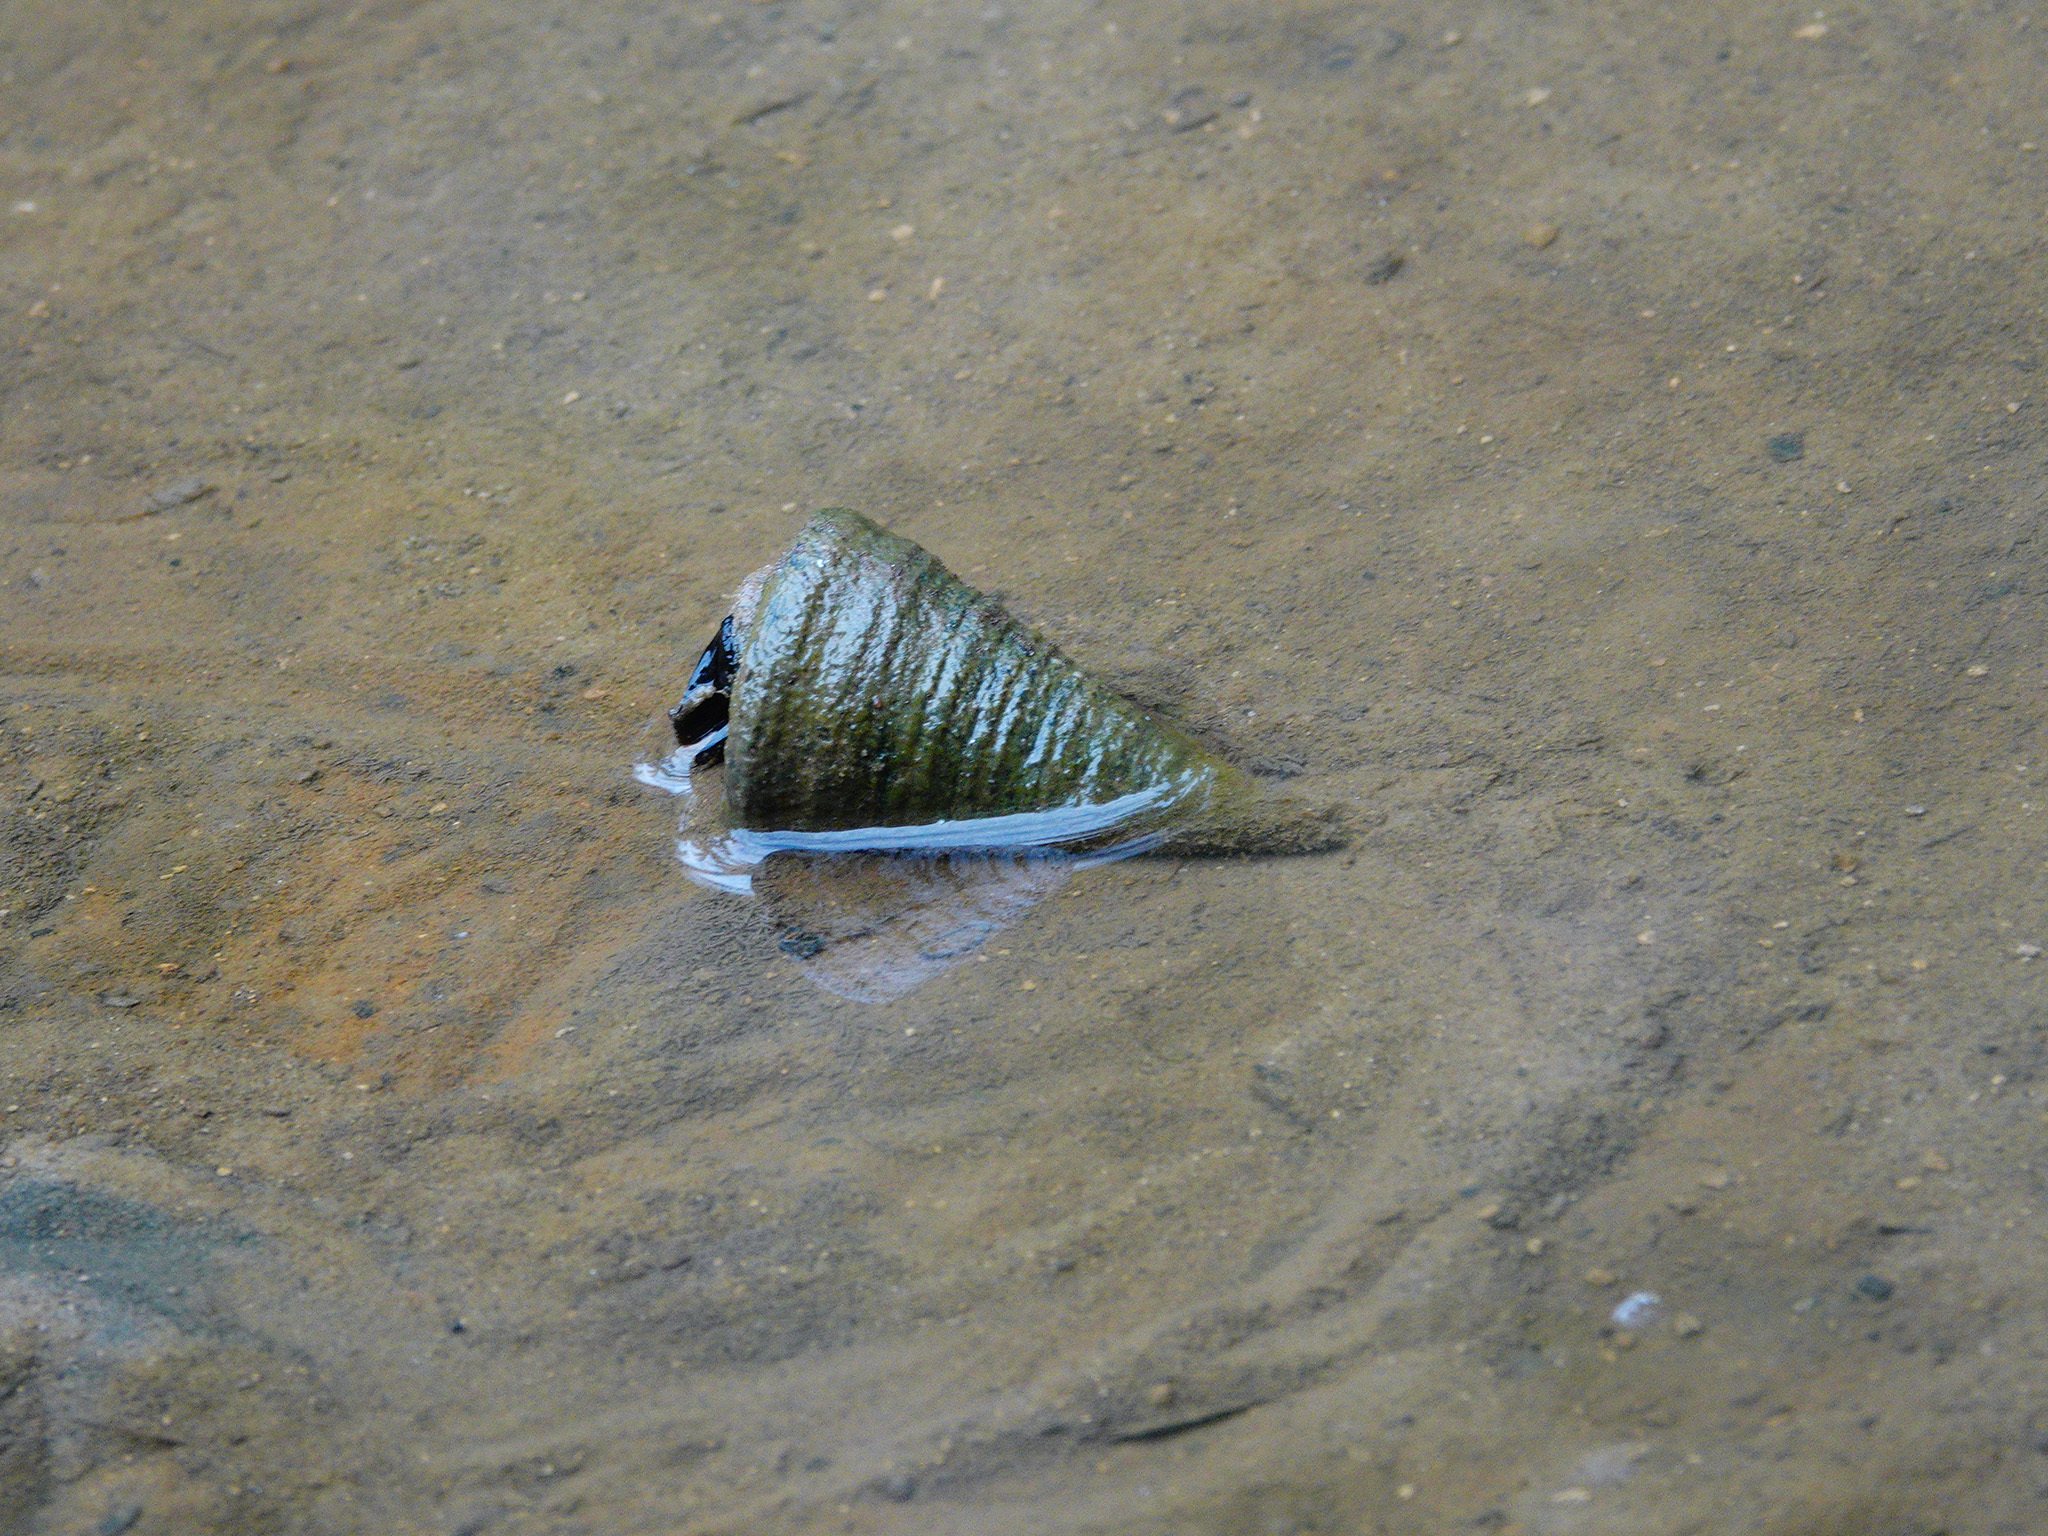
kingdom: Animalia
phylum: Mollusca
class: Gastropoda
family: Potamididae
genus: Telescopium
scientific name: Telescopium telescopium
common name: Telescope creeper
